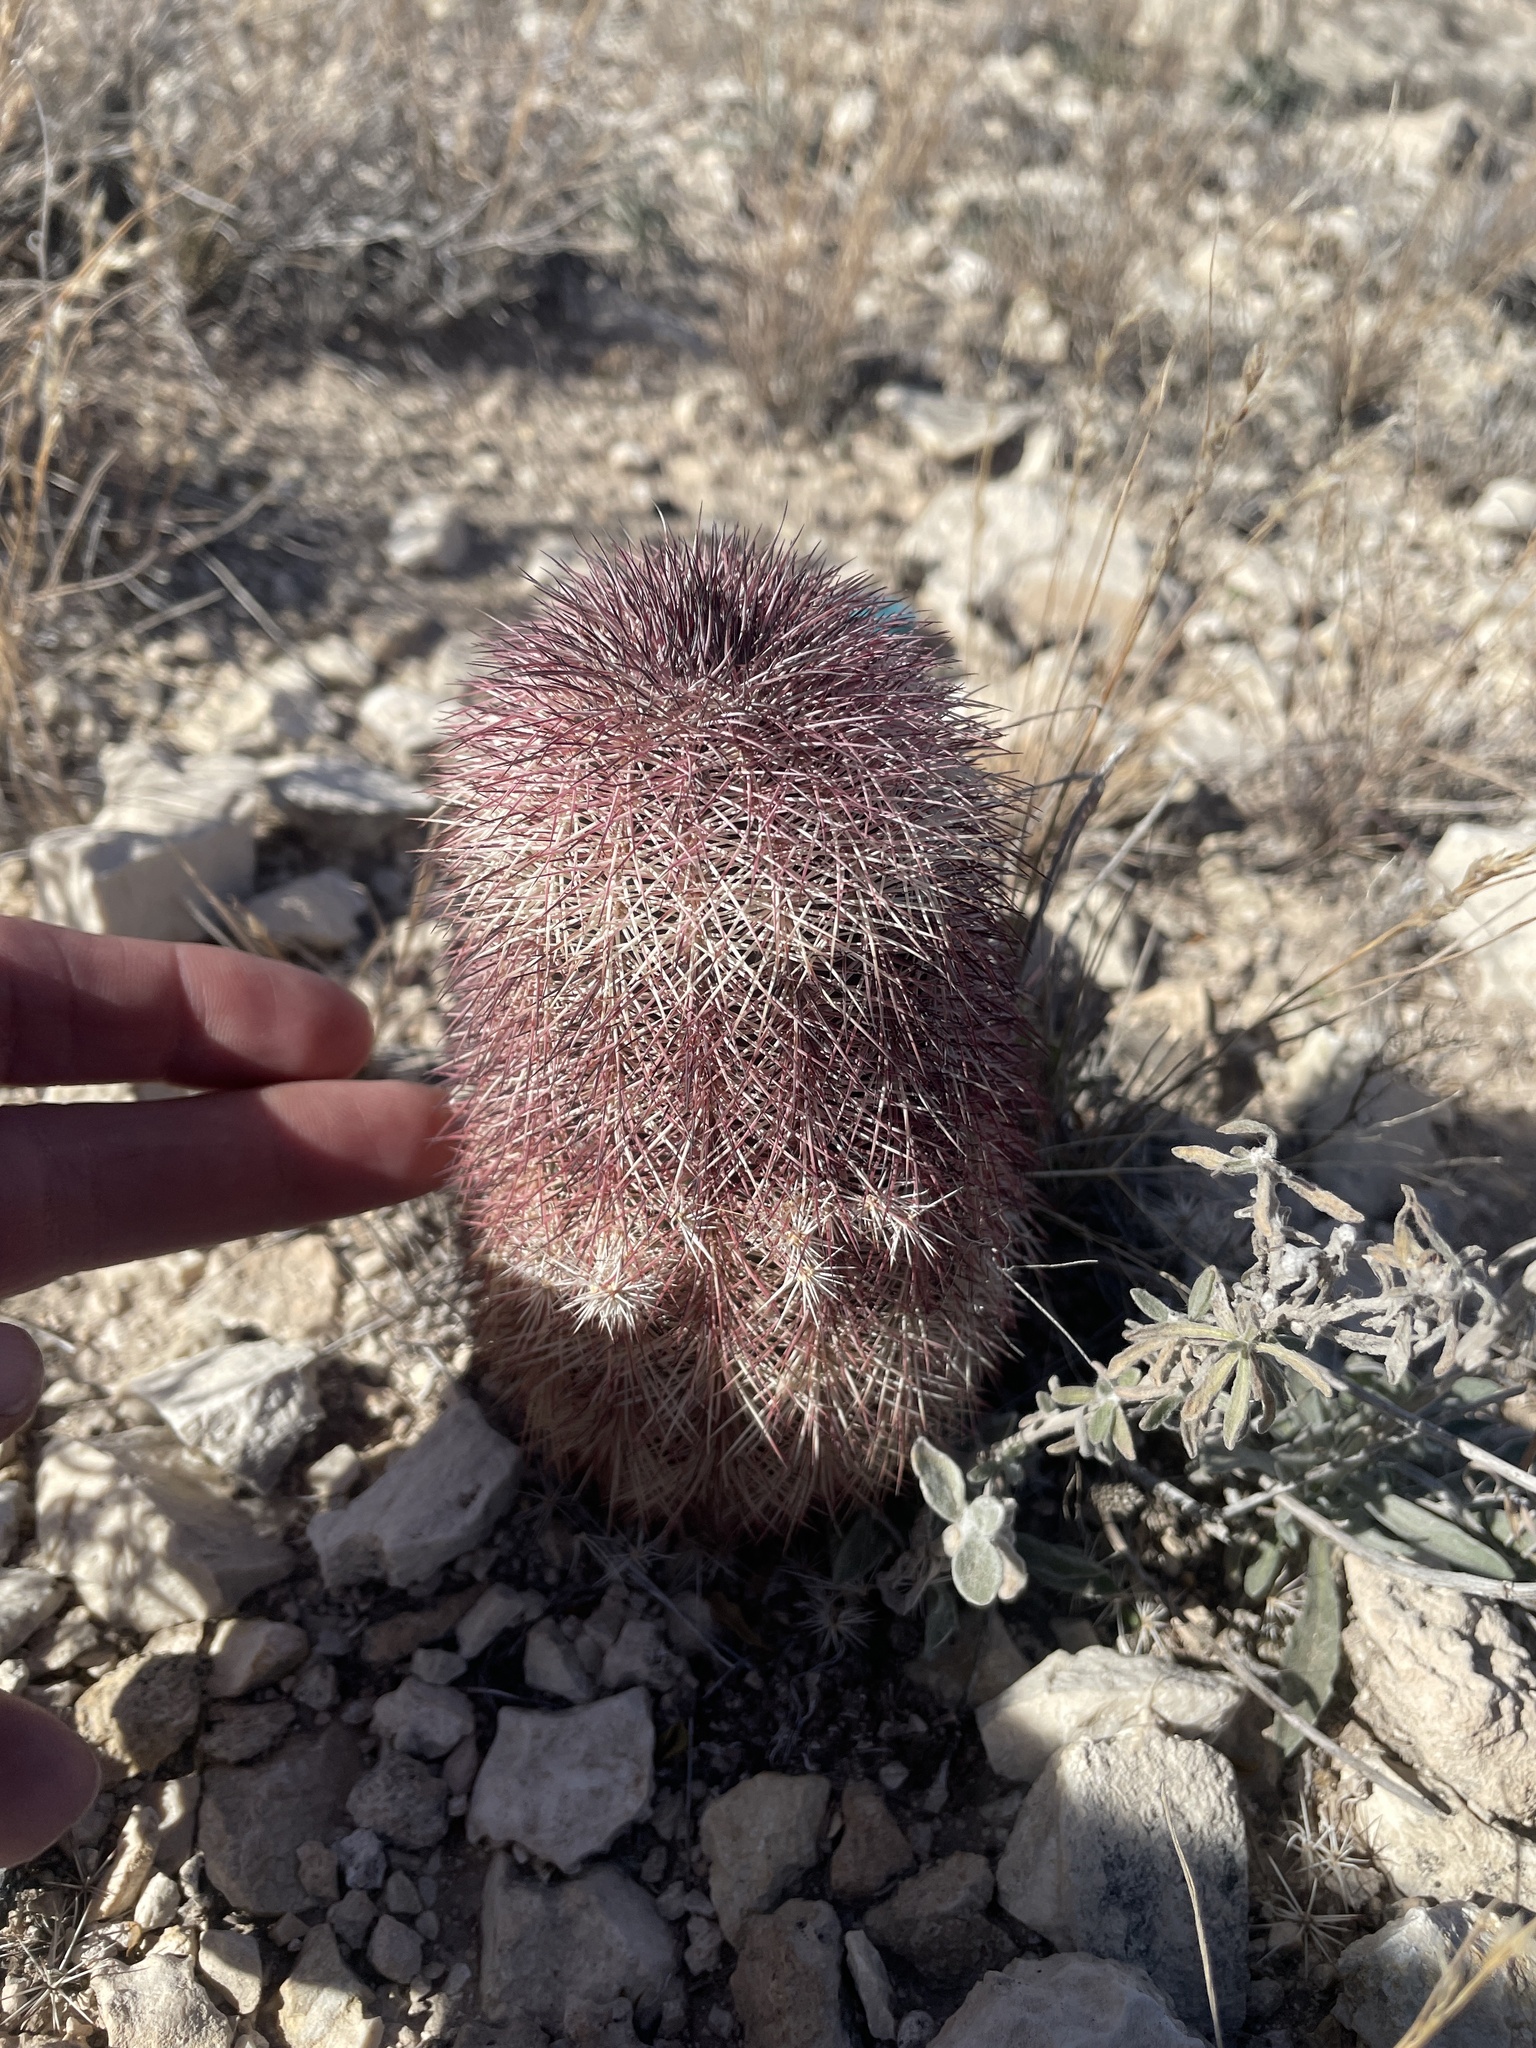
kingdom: Plantae
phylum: Tracheophyta
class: Magnoliopsida
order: Caryophyllales
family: Cactaceae
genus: Echinocereus
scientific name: Echinocereus dasyacanthus
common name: Spiny hedgehog cactus
